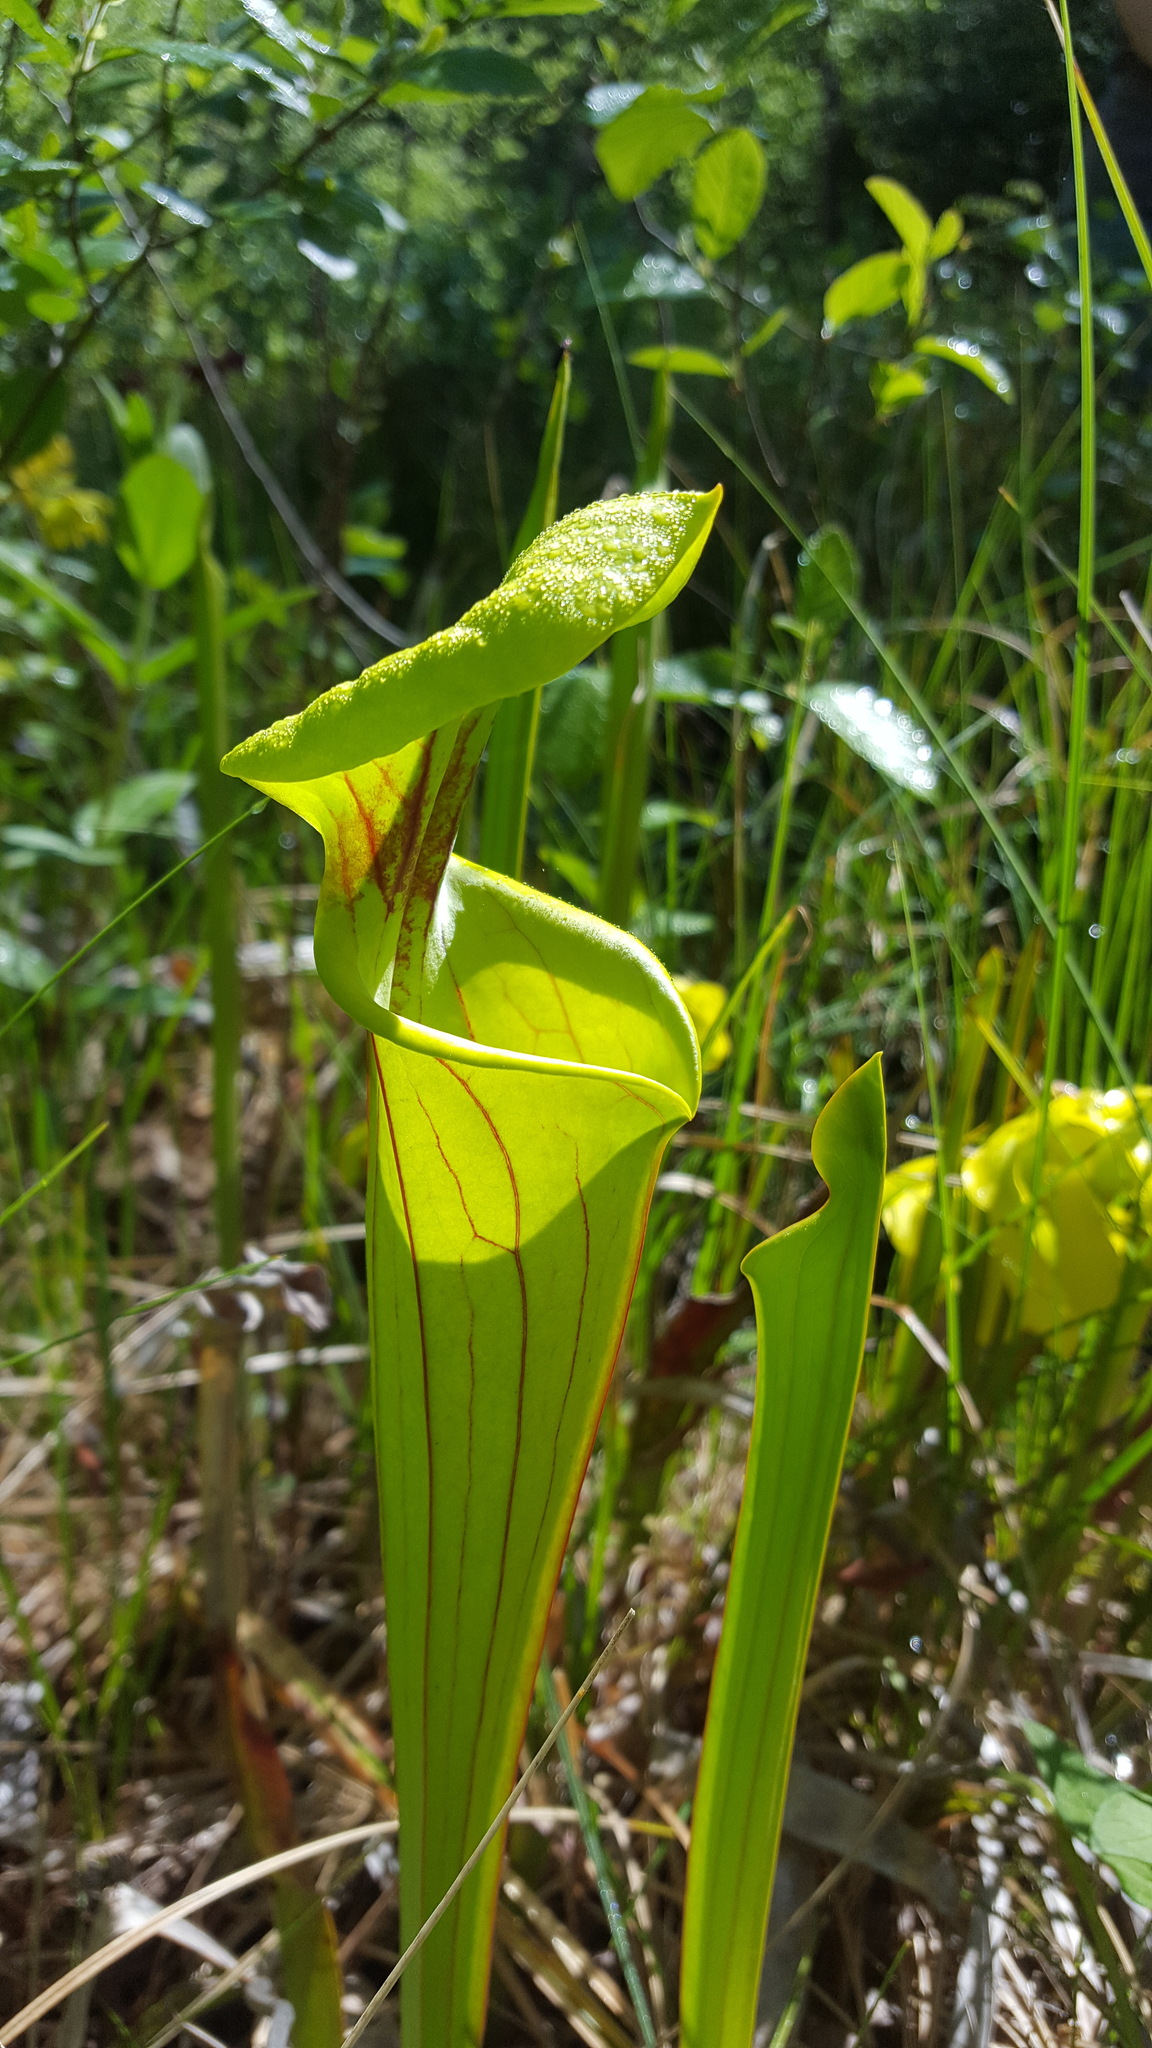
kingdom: Plantae
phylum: Tracheophyta
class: Magnoliopsida
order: Ericales
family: Sarraceniaceae
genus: Sarracenia
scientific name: Sarracenia flava
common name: Trumpets
